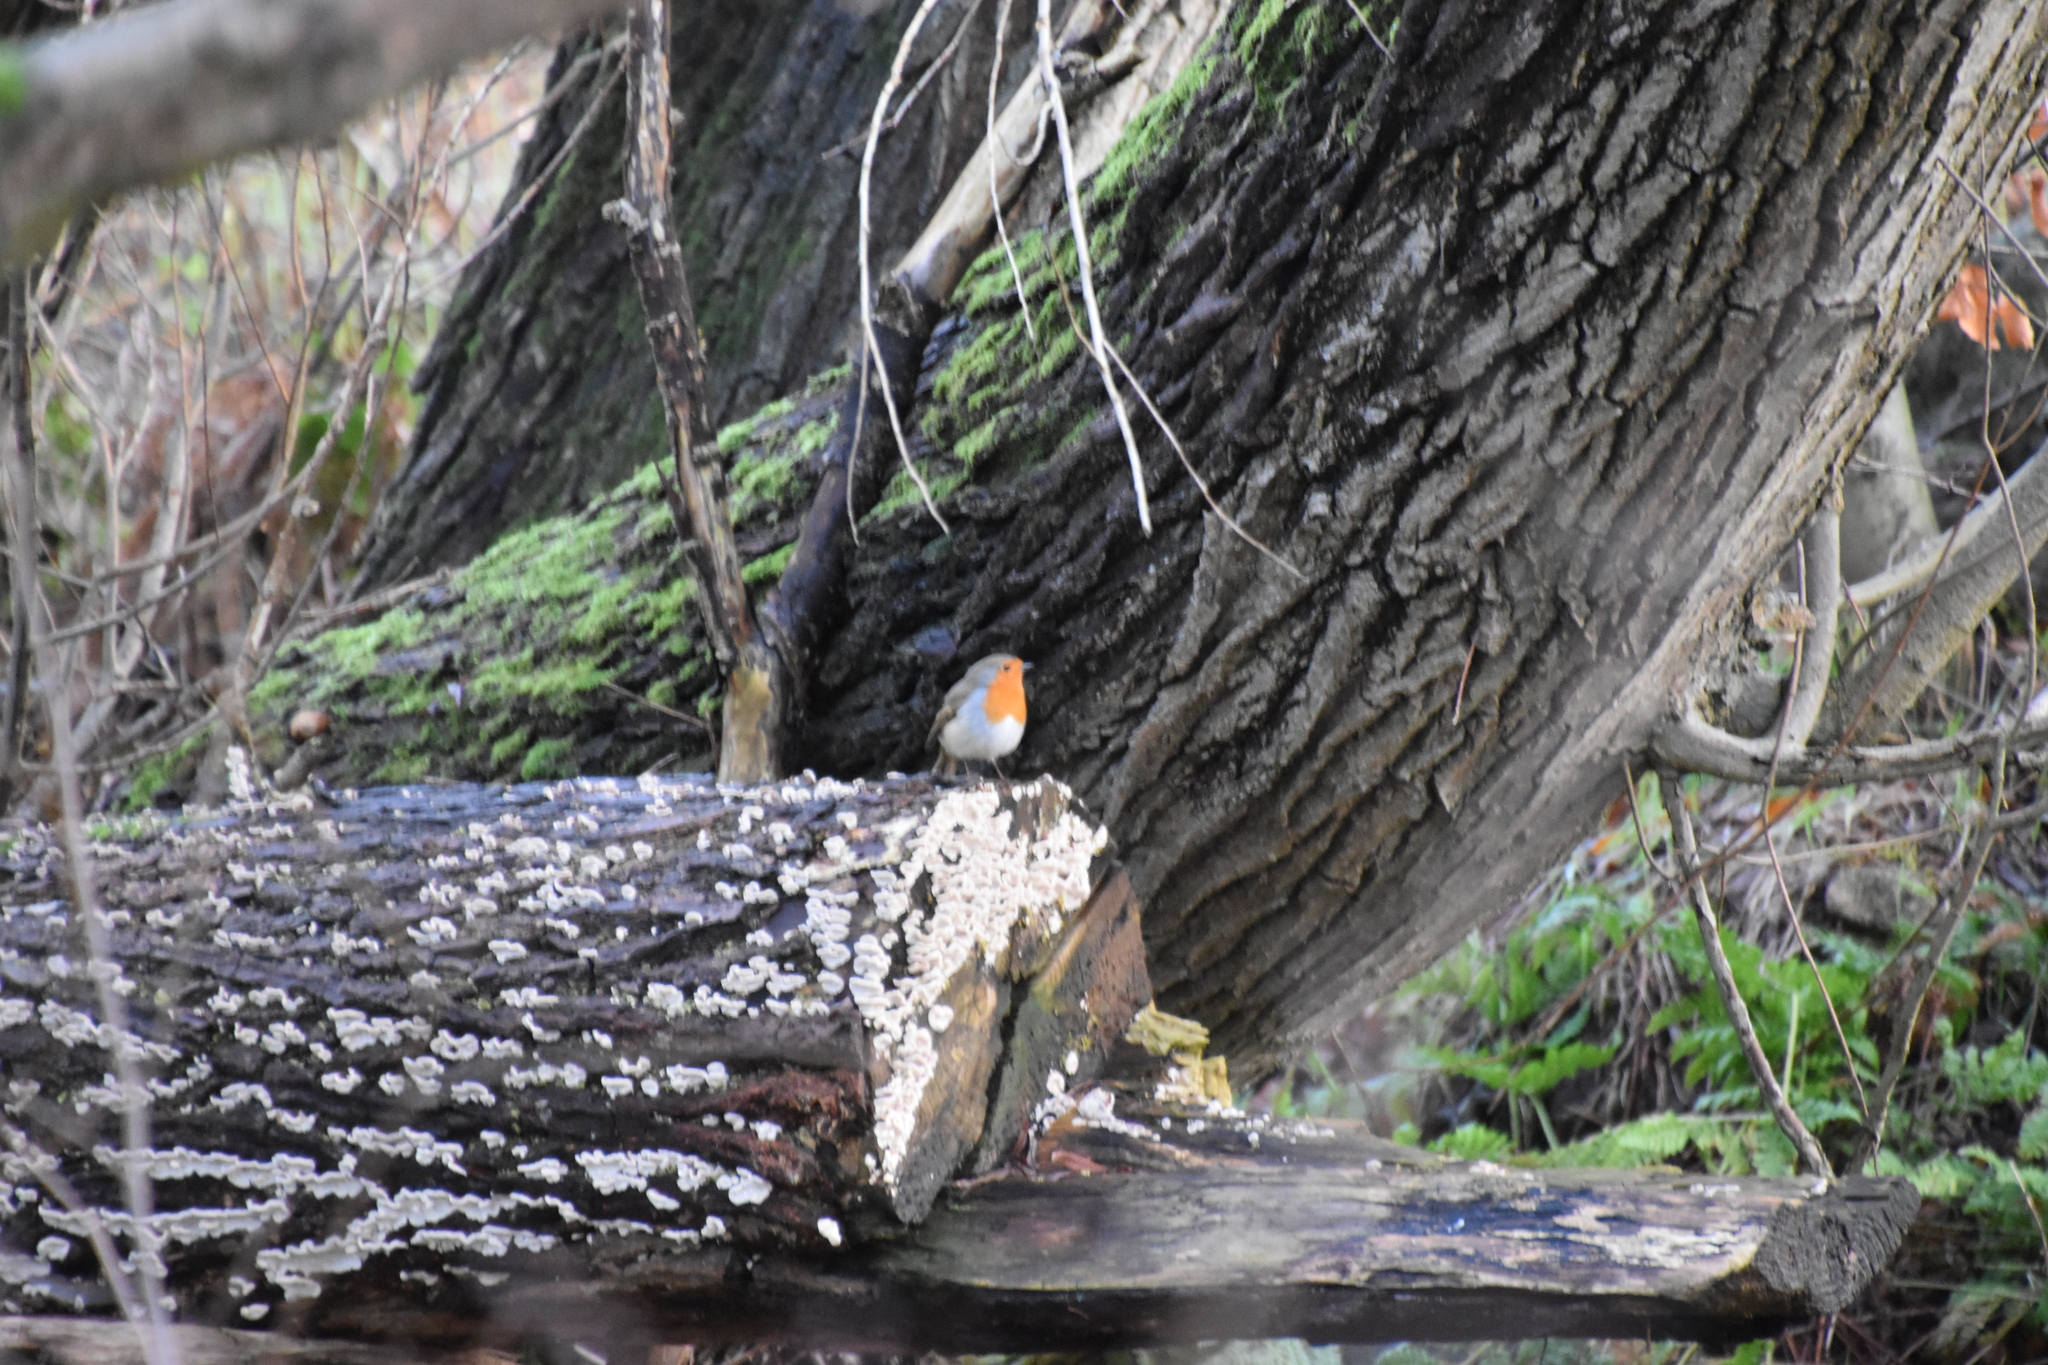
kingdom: Animalia
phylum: Chordata
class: Aves
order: Passeriformes
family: Muscicapidae
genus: Erithacus
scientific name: Erithacus rubecula
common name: European robin
